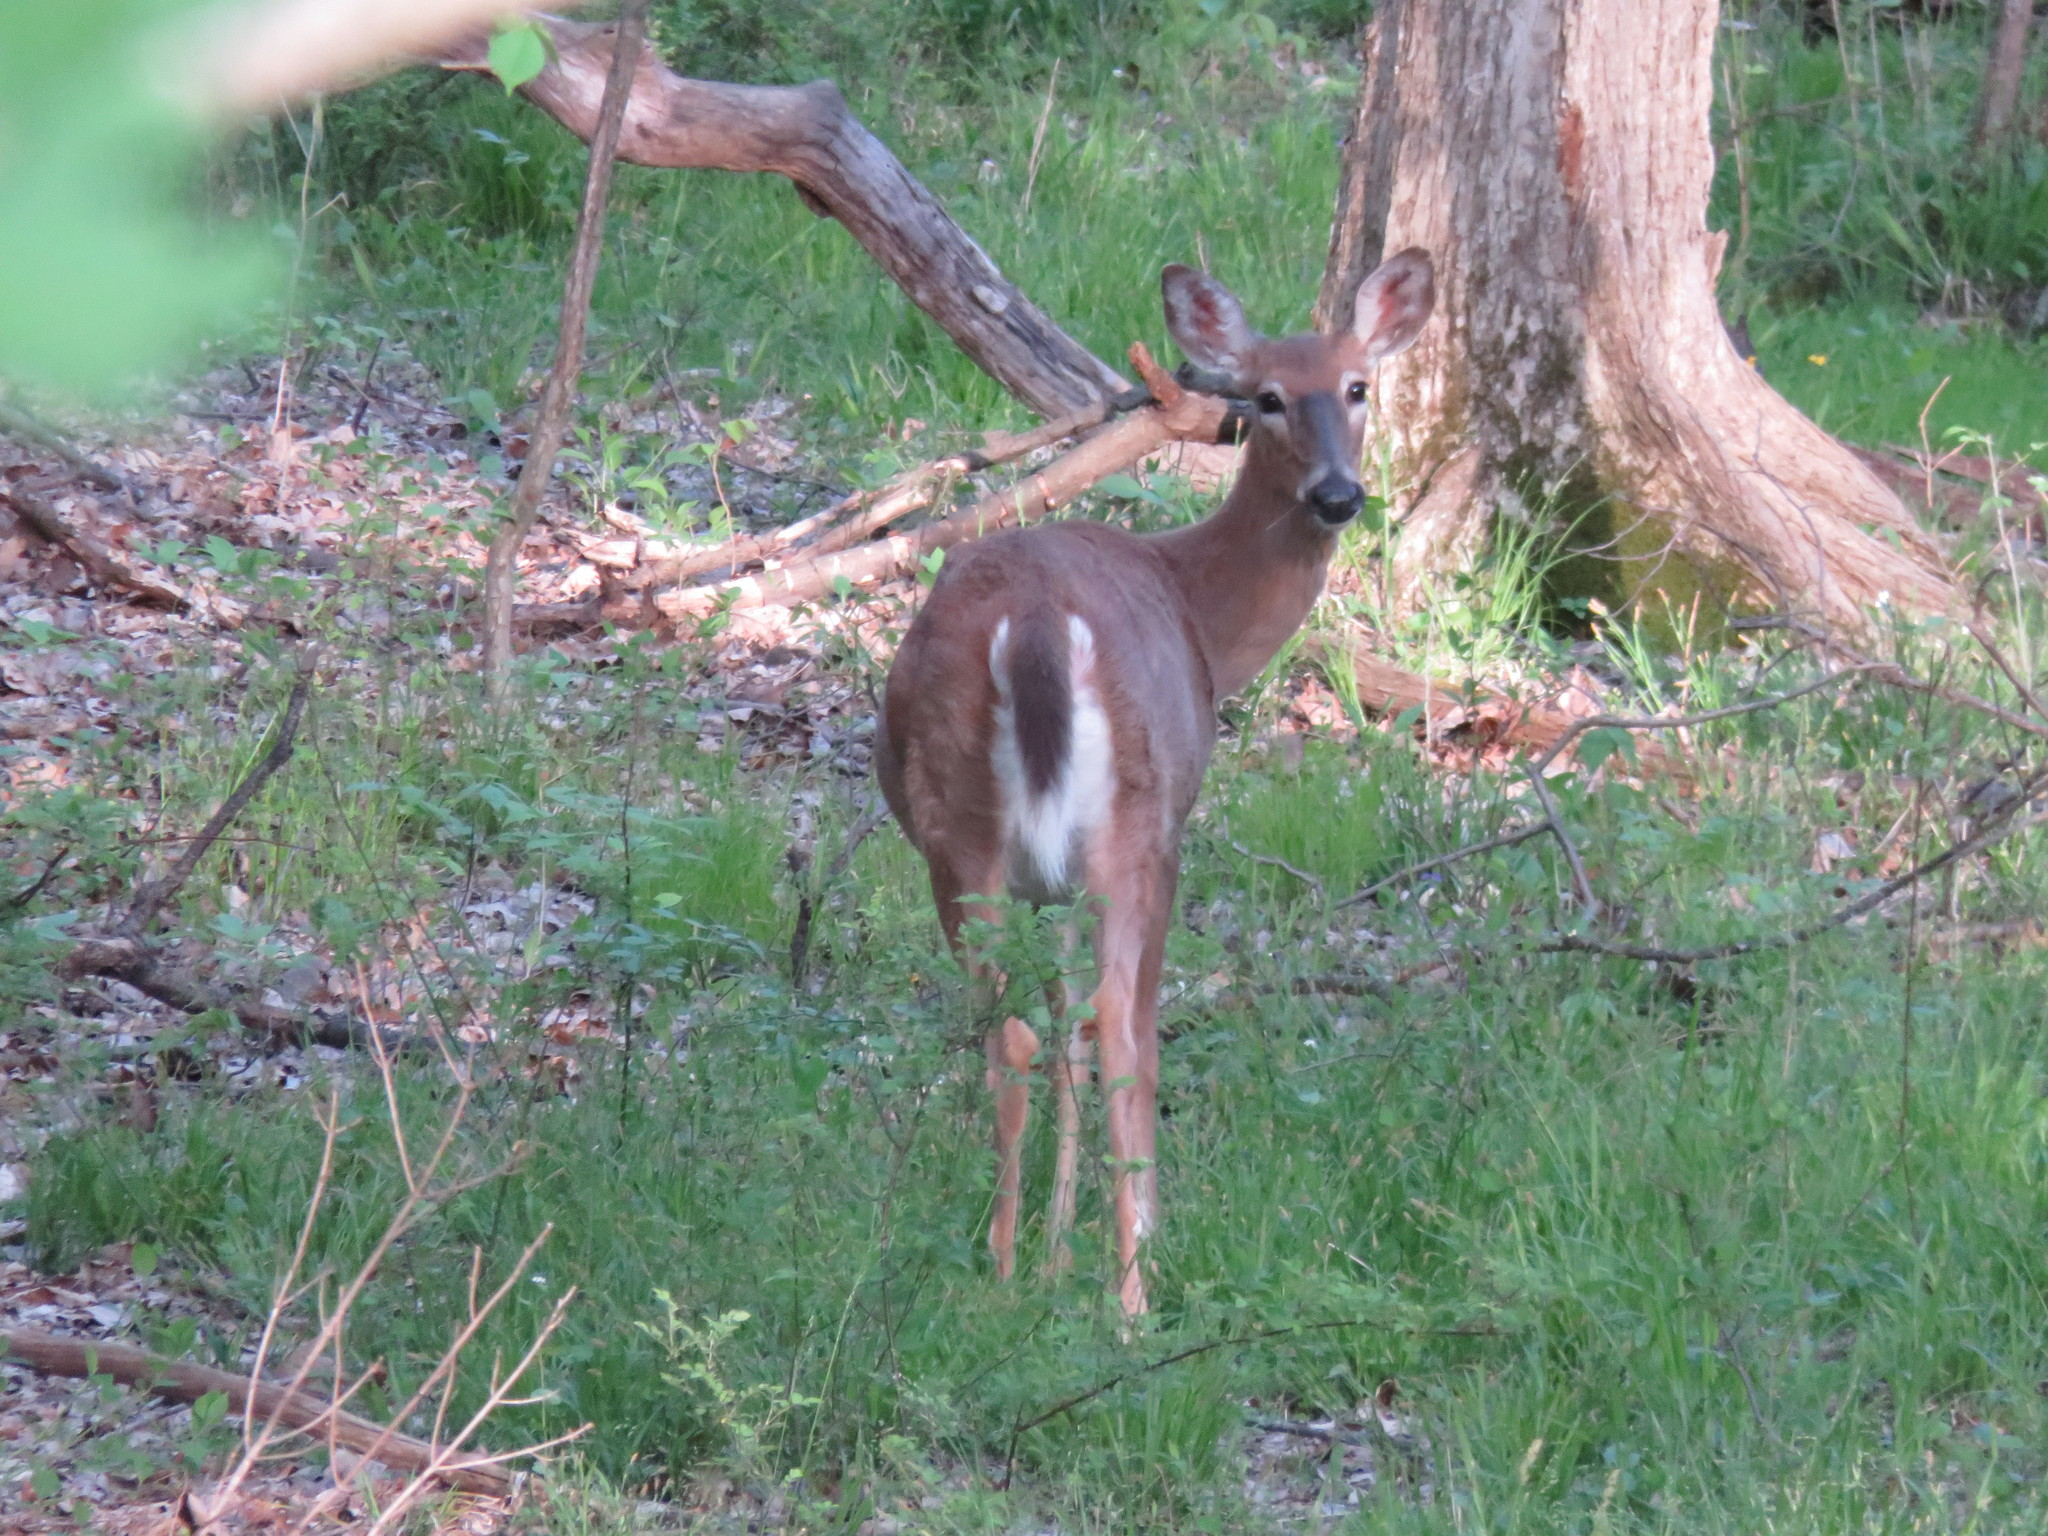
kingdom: Animalia
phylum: Chordata
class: Mammalia
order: Artiodactyla
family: Cervidae
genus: Odocoileus
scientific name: Odocoileus virginianus
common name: White-tailed deer
